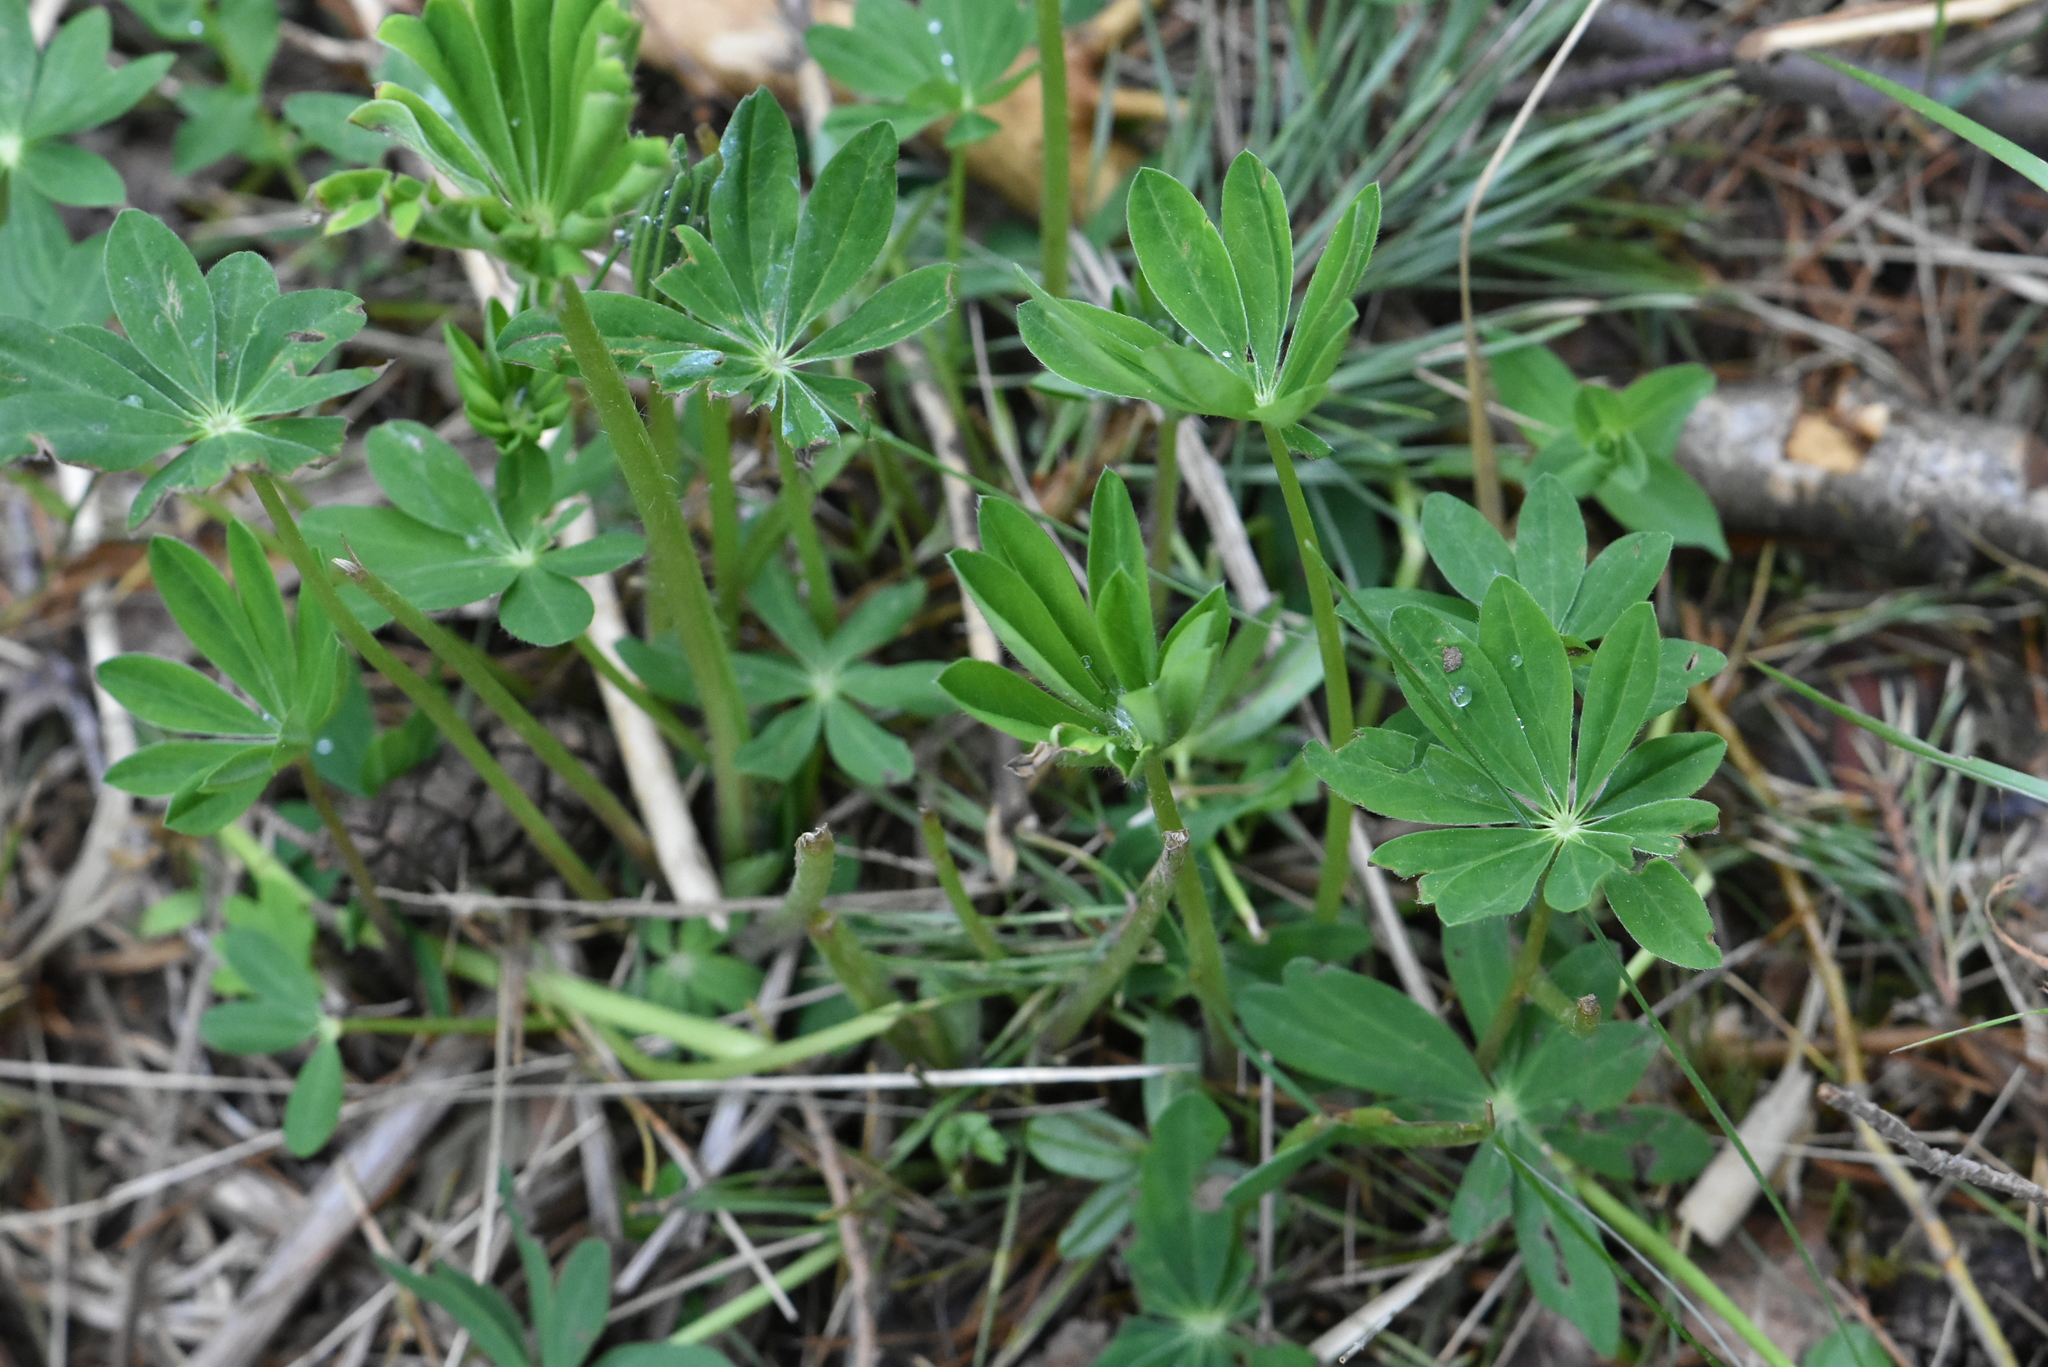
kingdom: Plantae
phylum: Tracheophyta
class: Magnoliopsida
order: Fabales
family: Fabaceae
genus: Lupinus
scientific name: Lupinus polyphyllus
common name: Garden lupin
